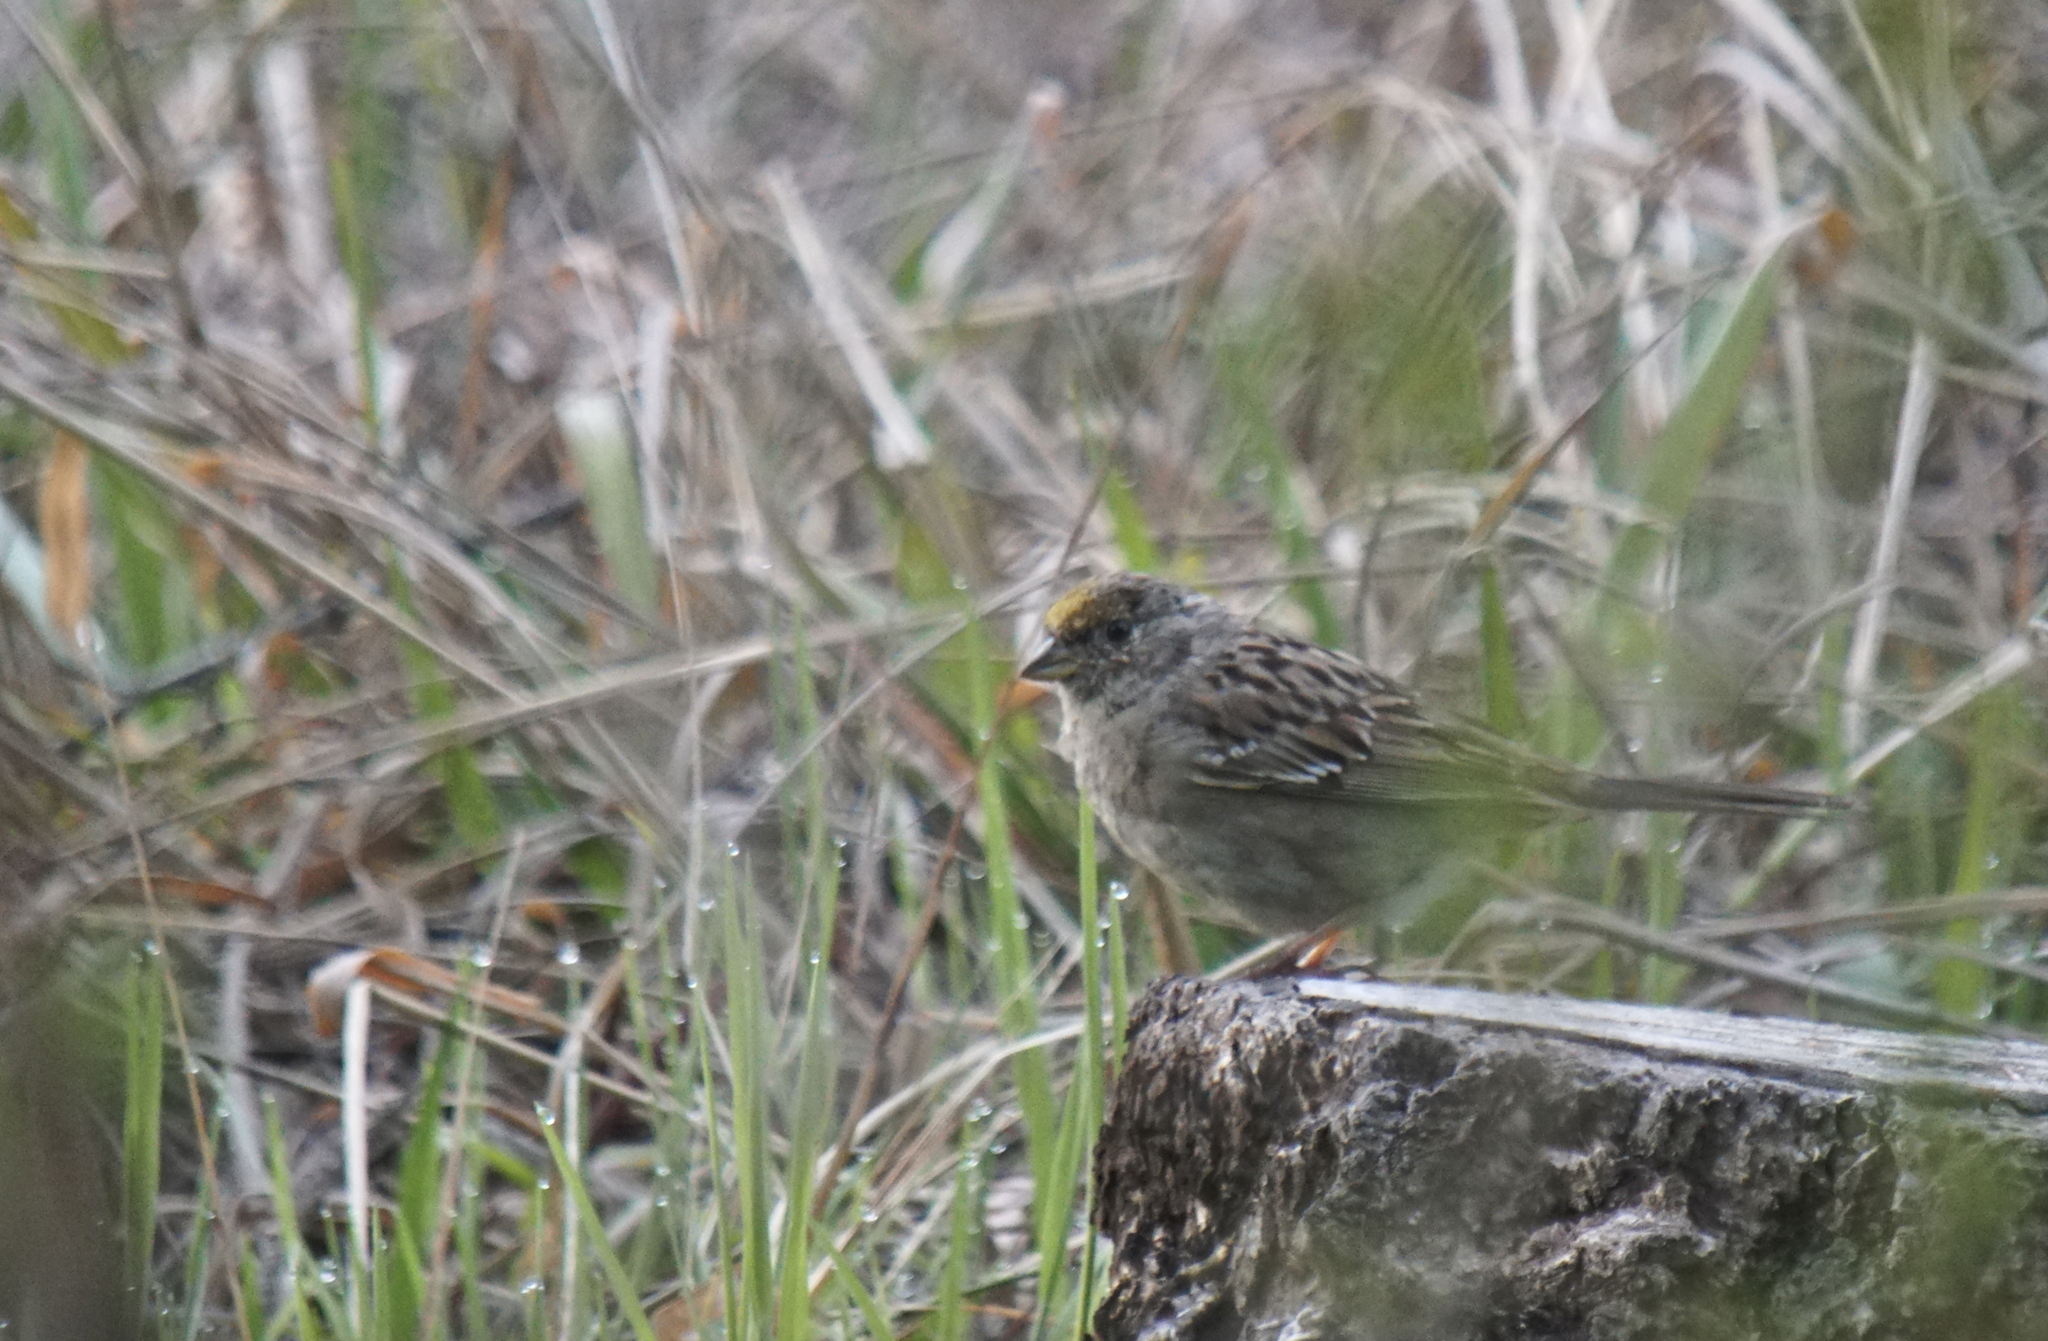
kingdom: Animalia
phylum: Chordata
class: Aves
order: Passeriformes
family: Passerellidae
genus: Zonotrichia
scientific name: Zonotrichia atricapilla
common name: Golden-crowned sparrow
